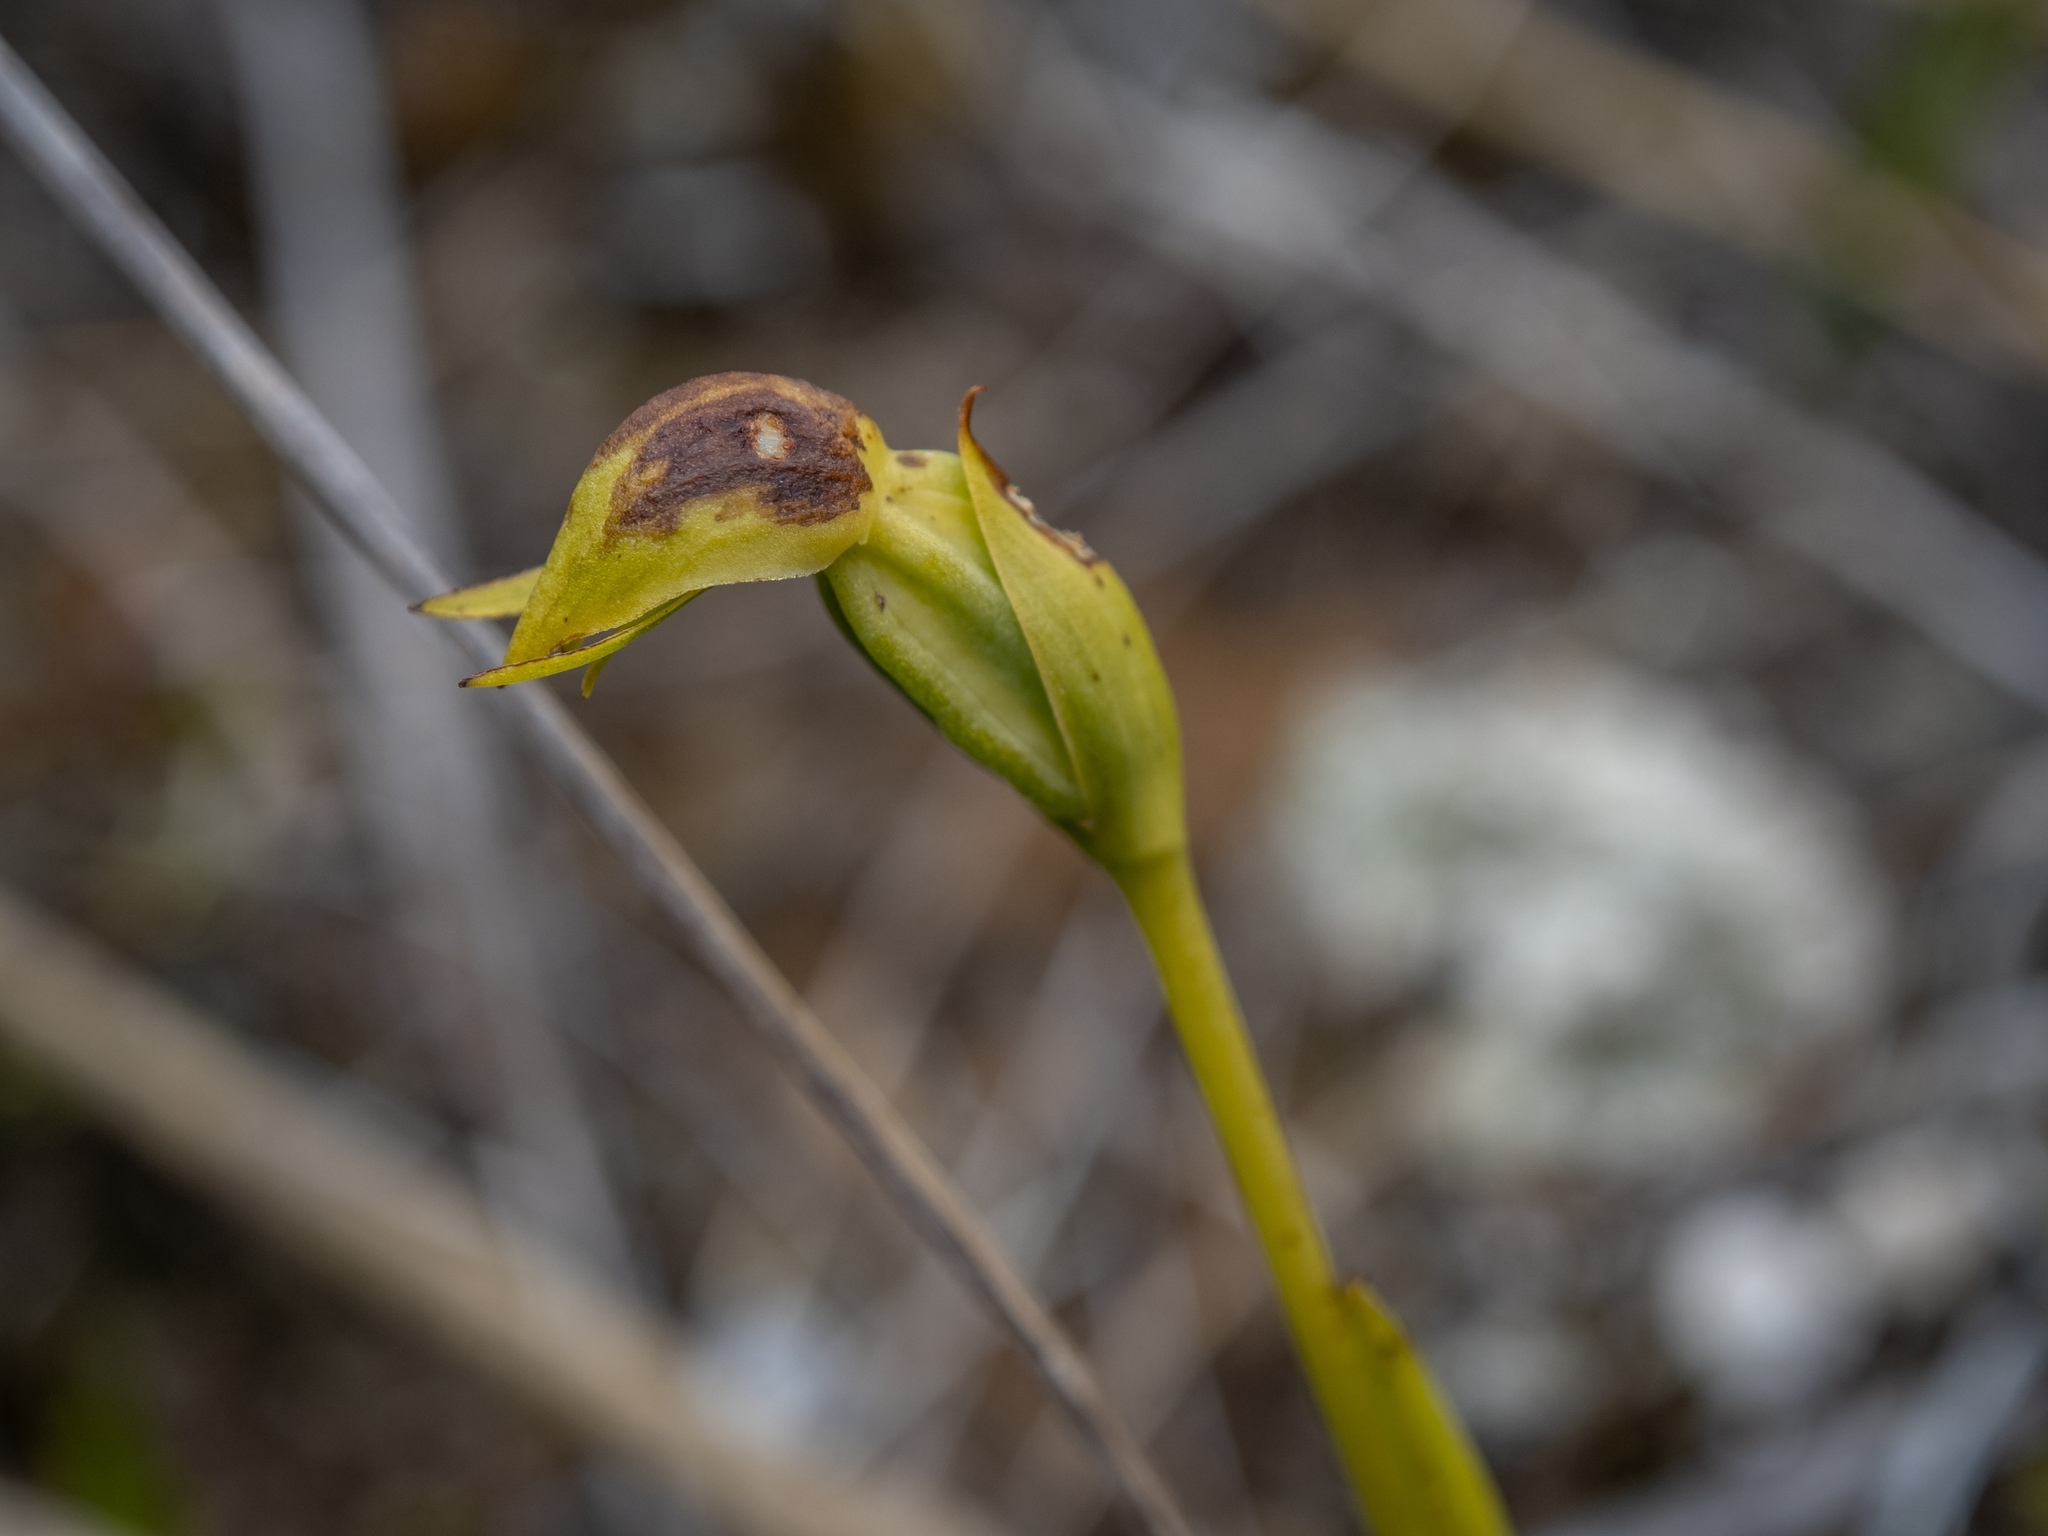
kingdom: Plantae
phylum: Tracheophyta
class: Liliopsida
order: Asparagales
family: Orchidaceae
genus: Waireia
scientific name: Waireia stenopetala
